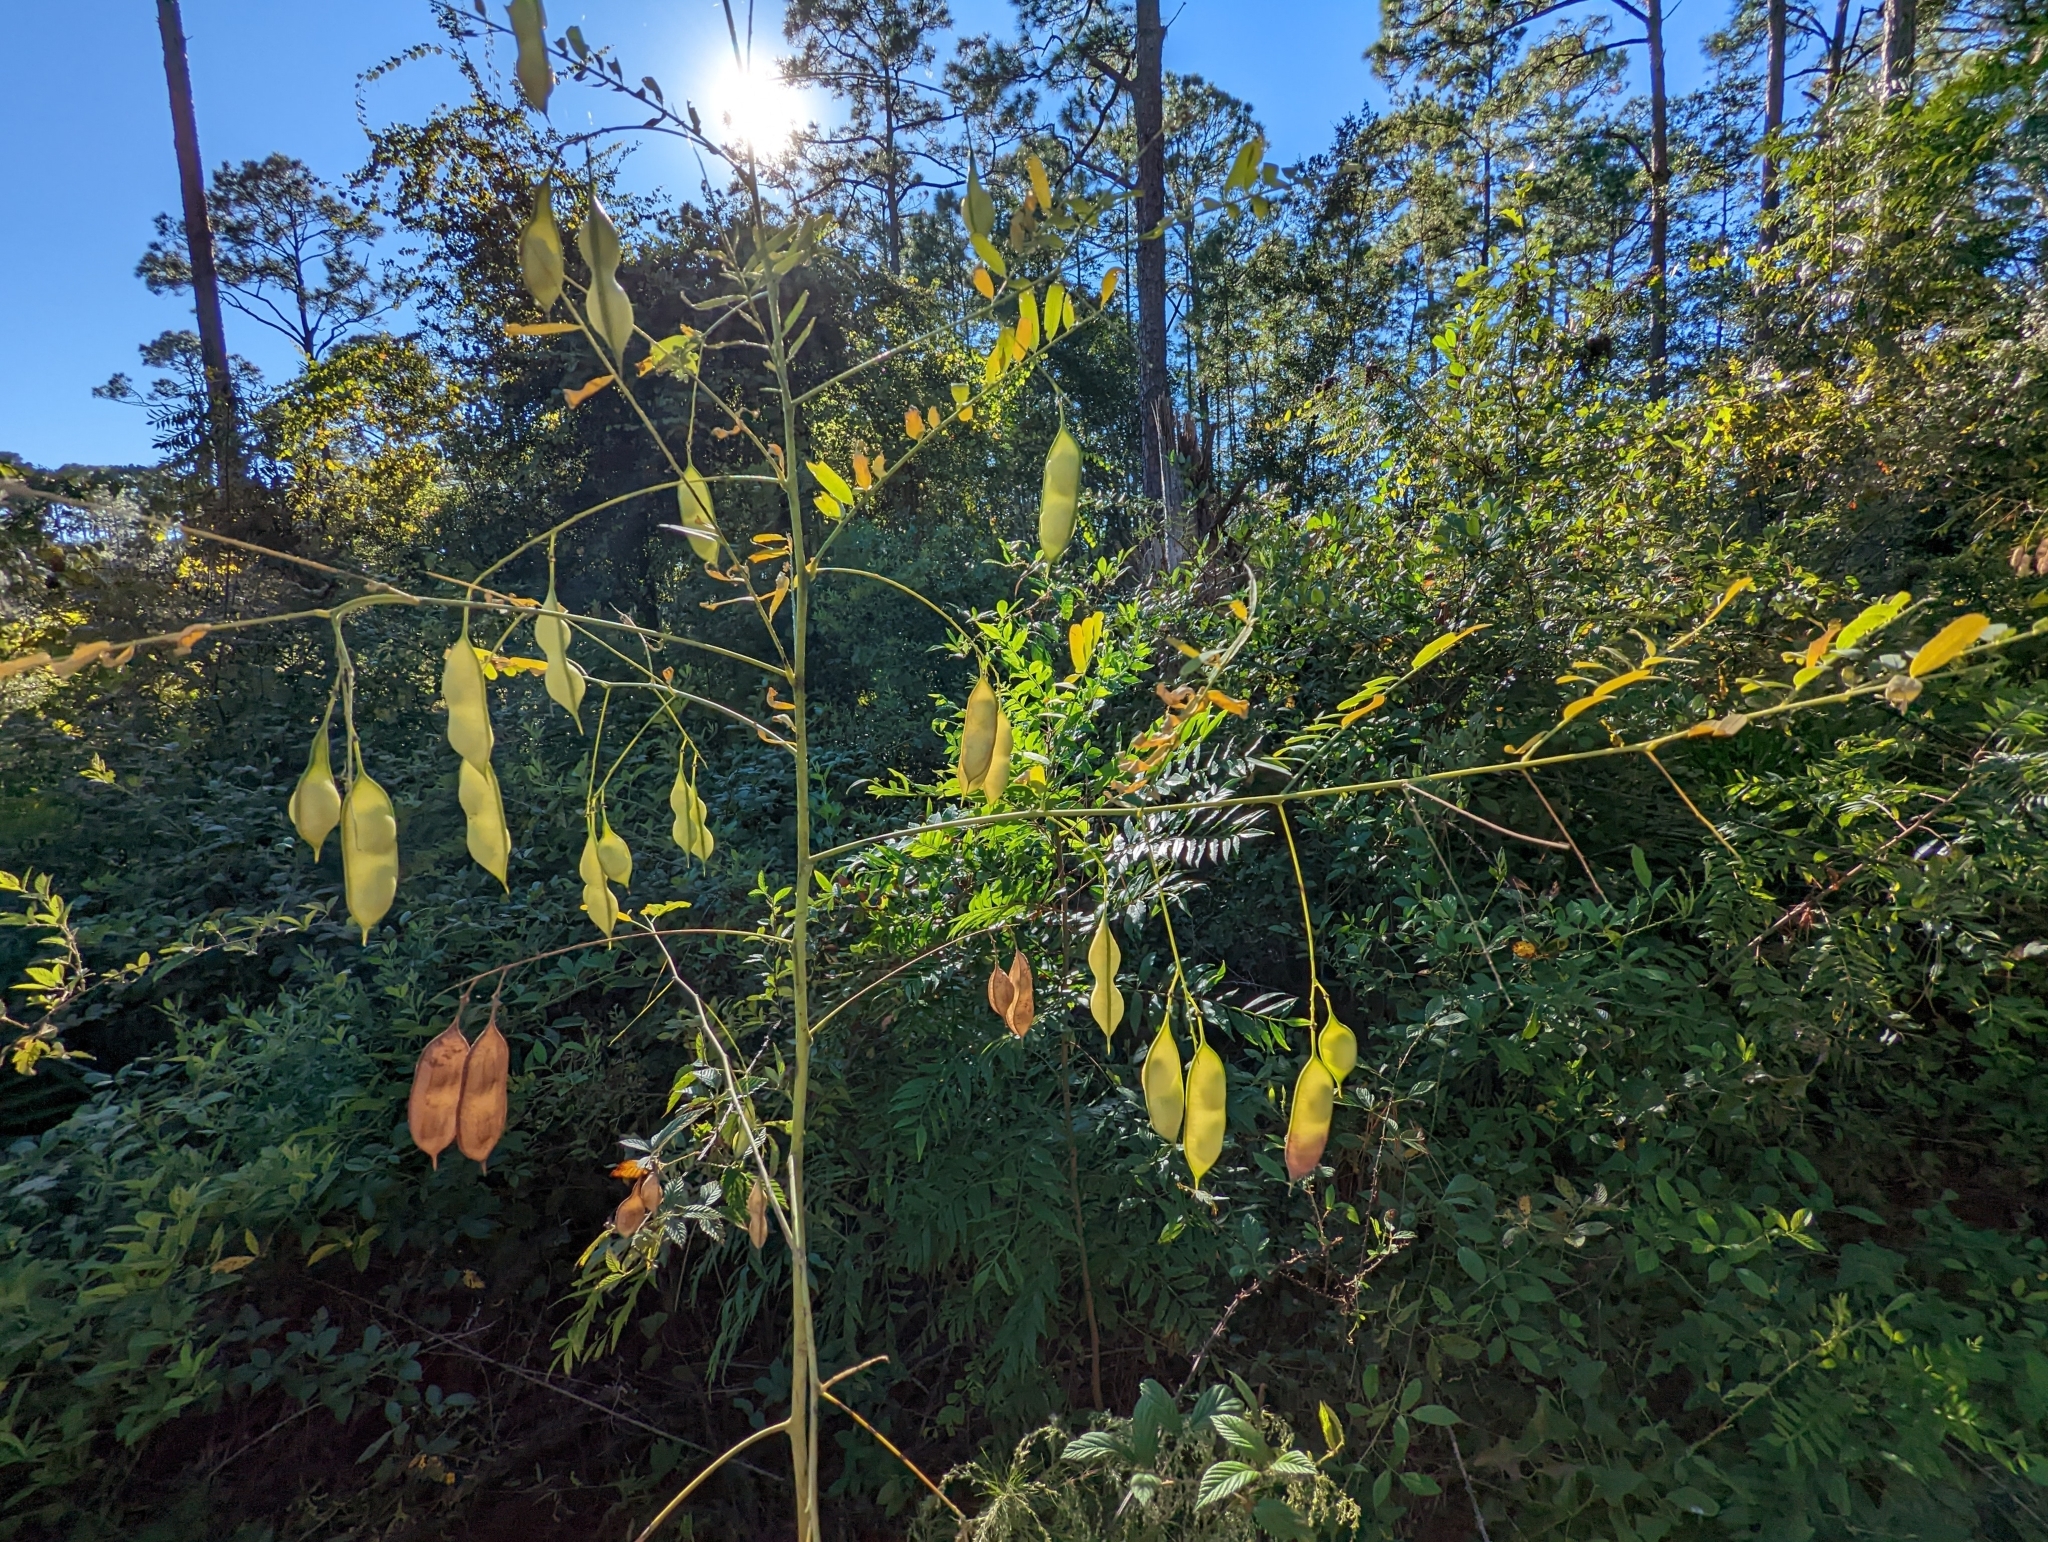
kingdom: Plantae
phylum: Tracheophyta
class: Magnoliopsida
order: Fabales
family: Fabaceae
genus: Sesbania
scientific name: Sesbania vesicaria
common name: Bagpod
